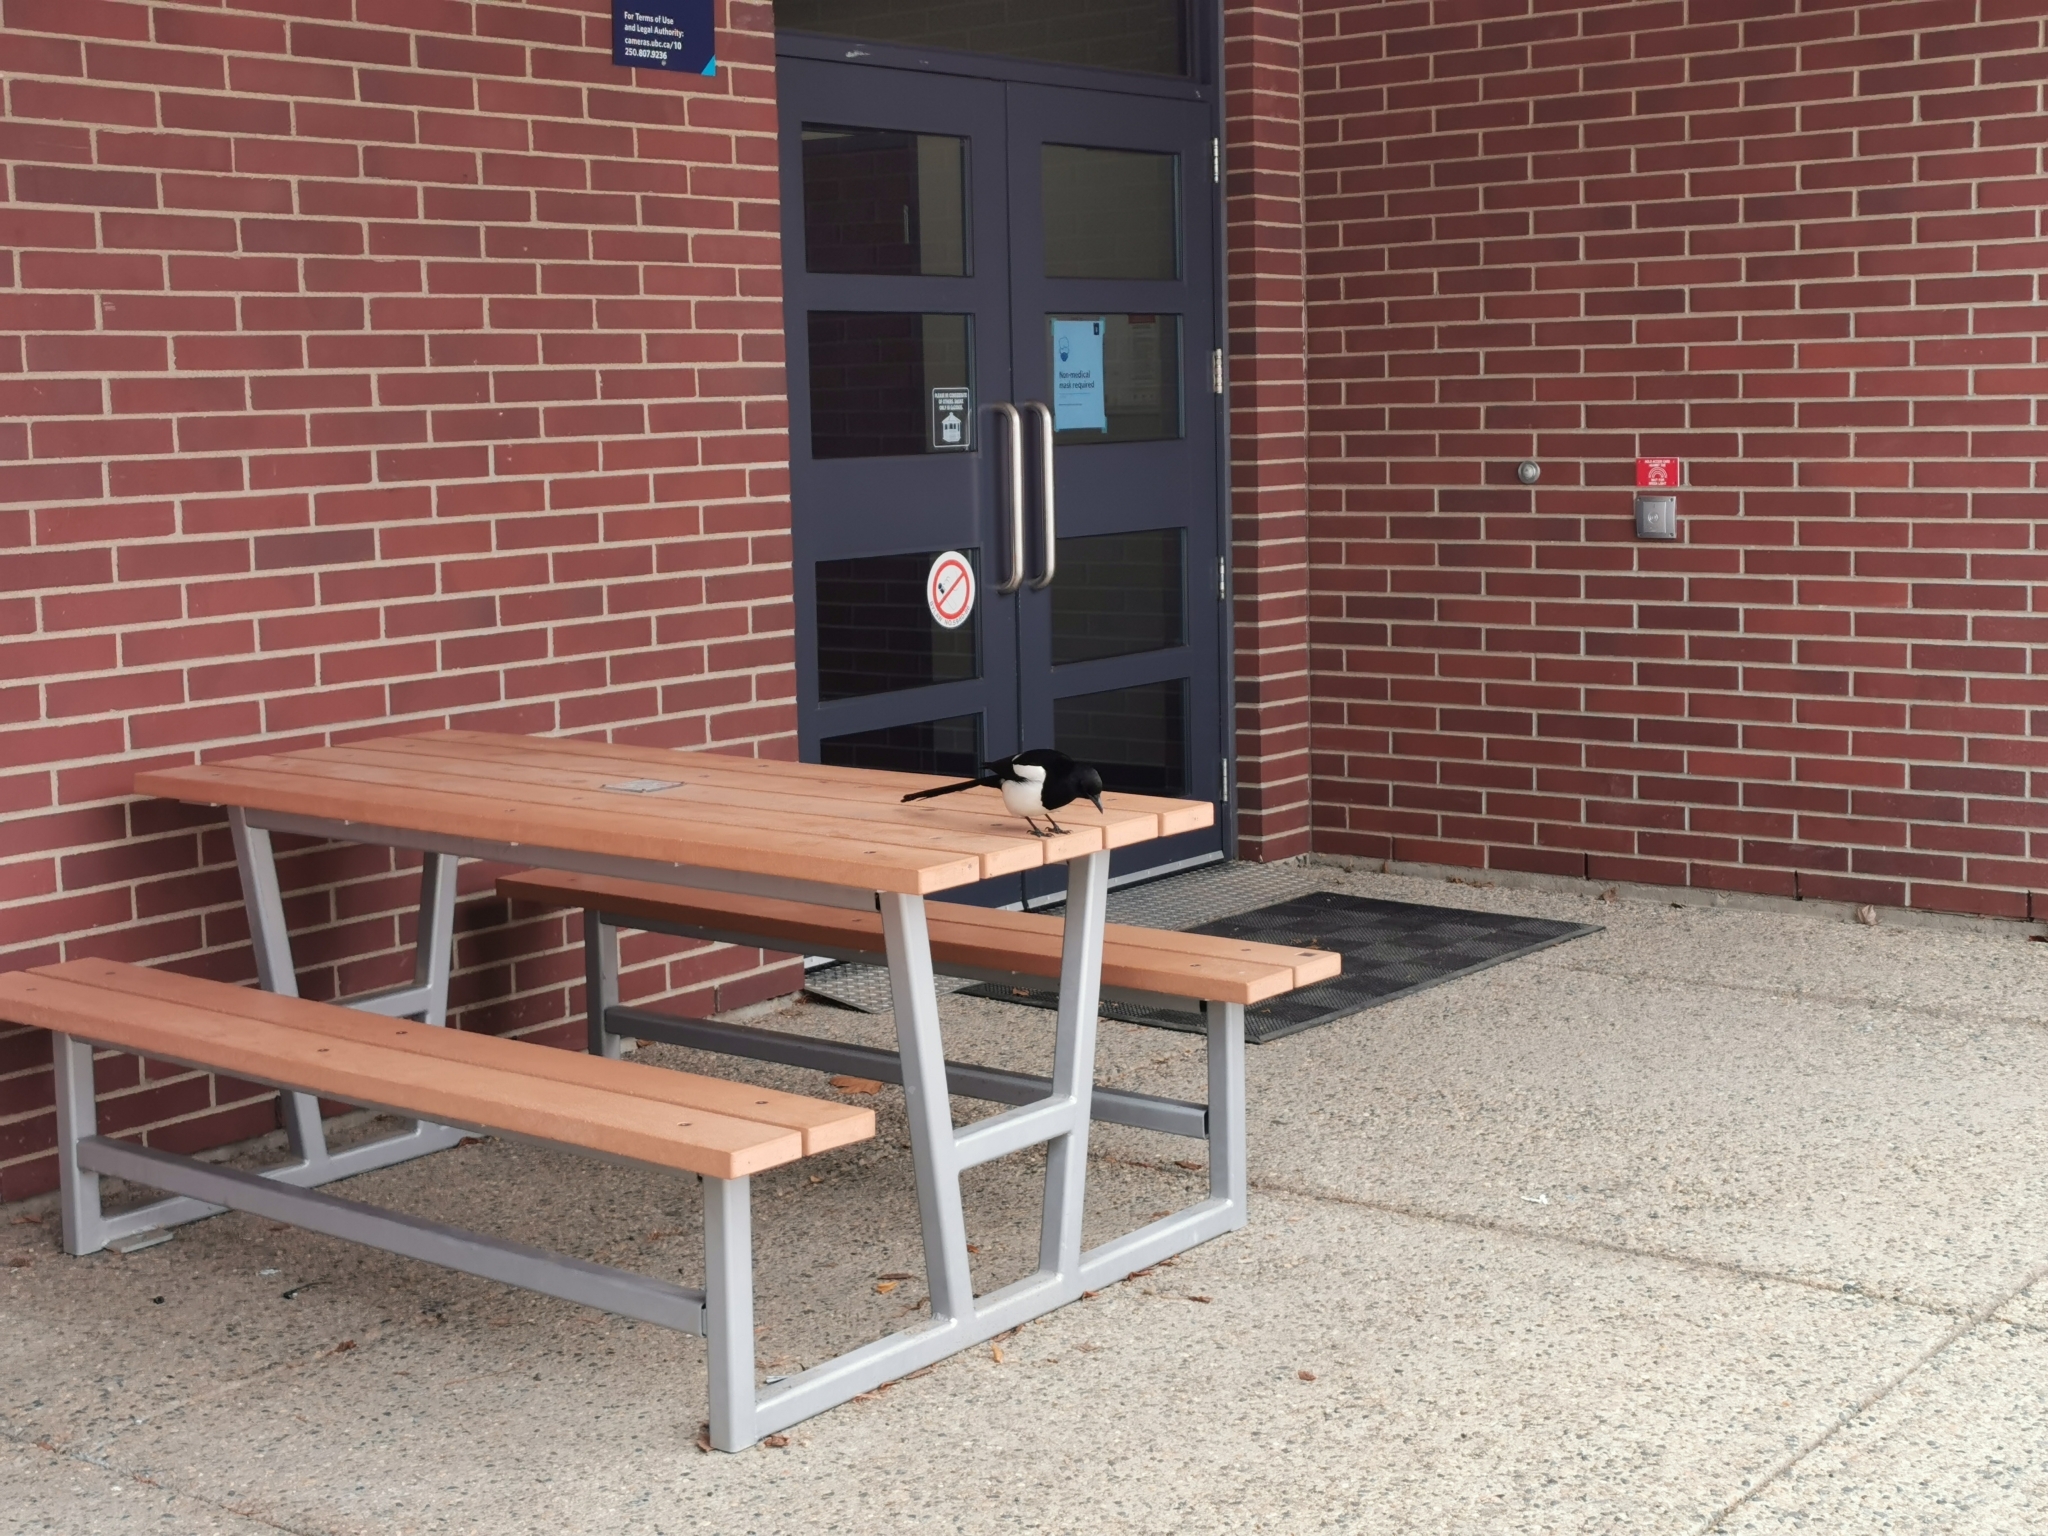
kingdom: Animalia
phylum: Chordata
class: Aves
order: Passeriformes
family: Corvidae
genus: Pica
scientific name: Pica hudsonia
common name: Black-billed magpie
